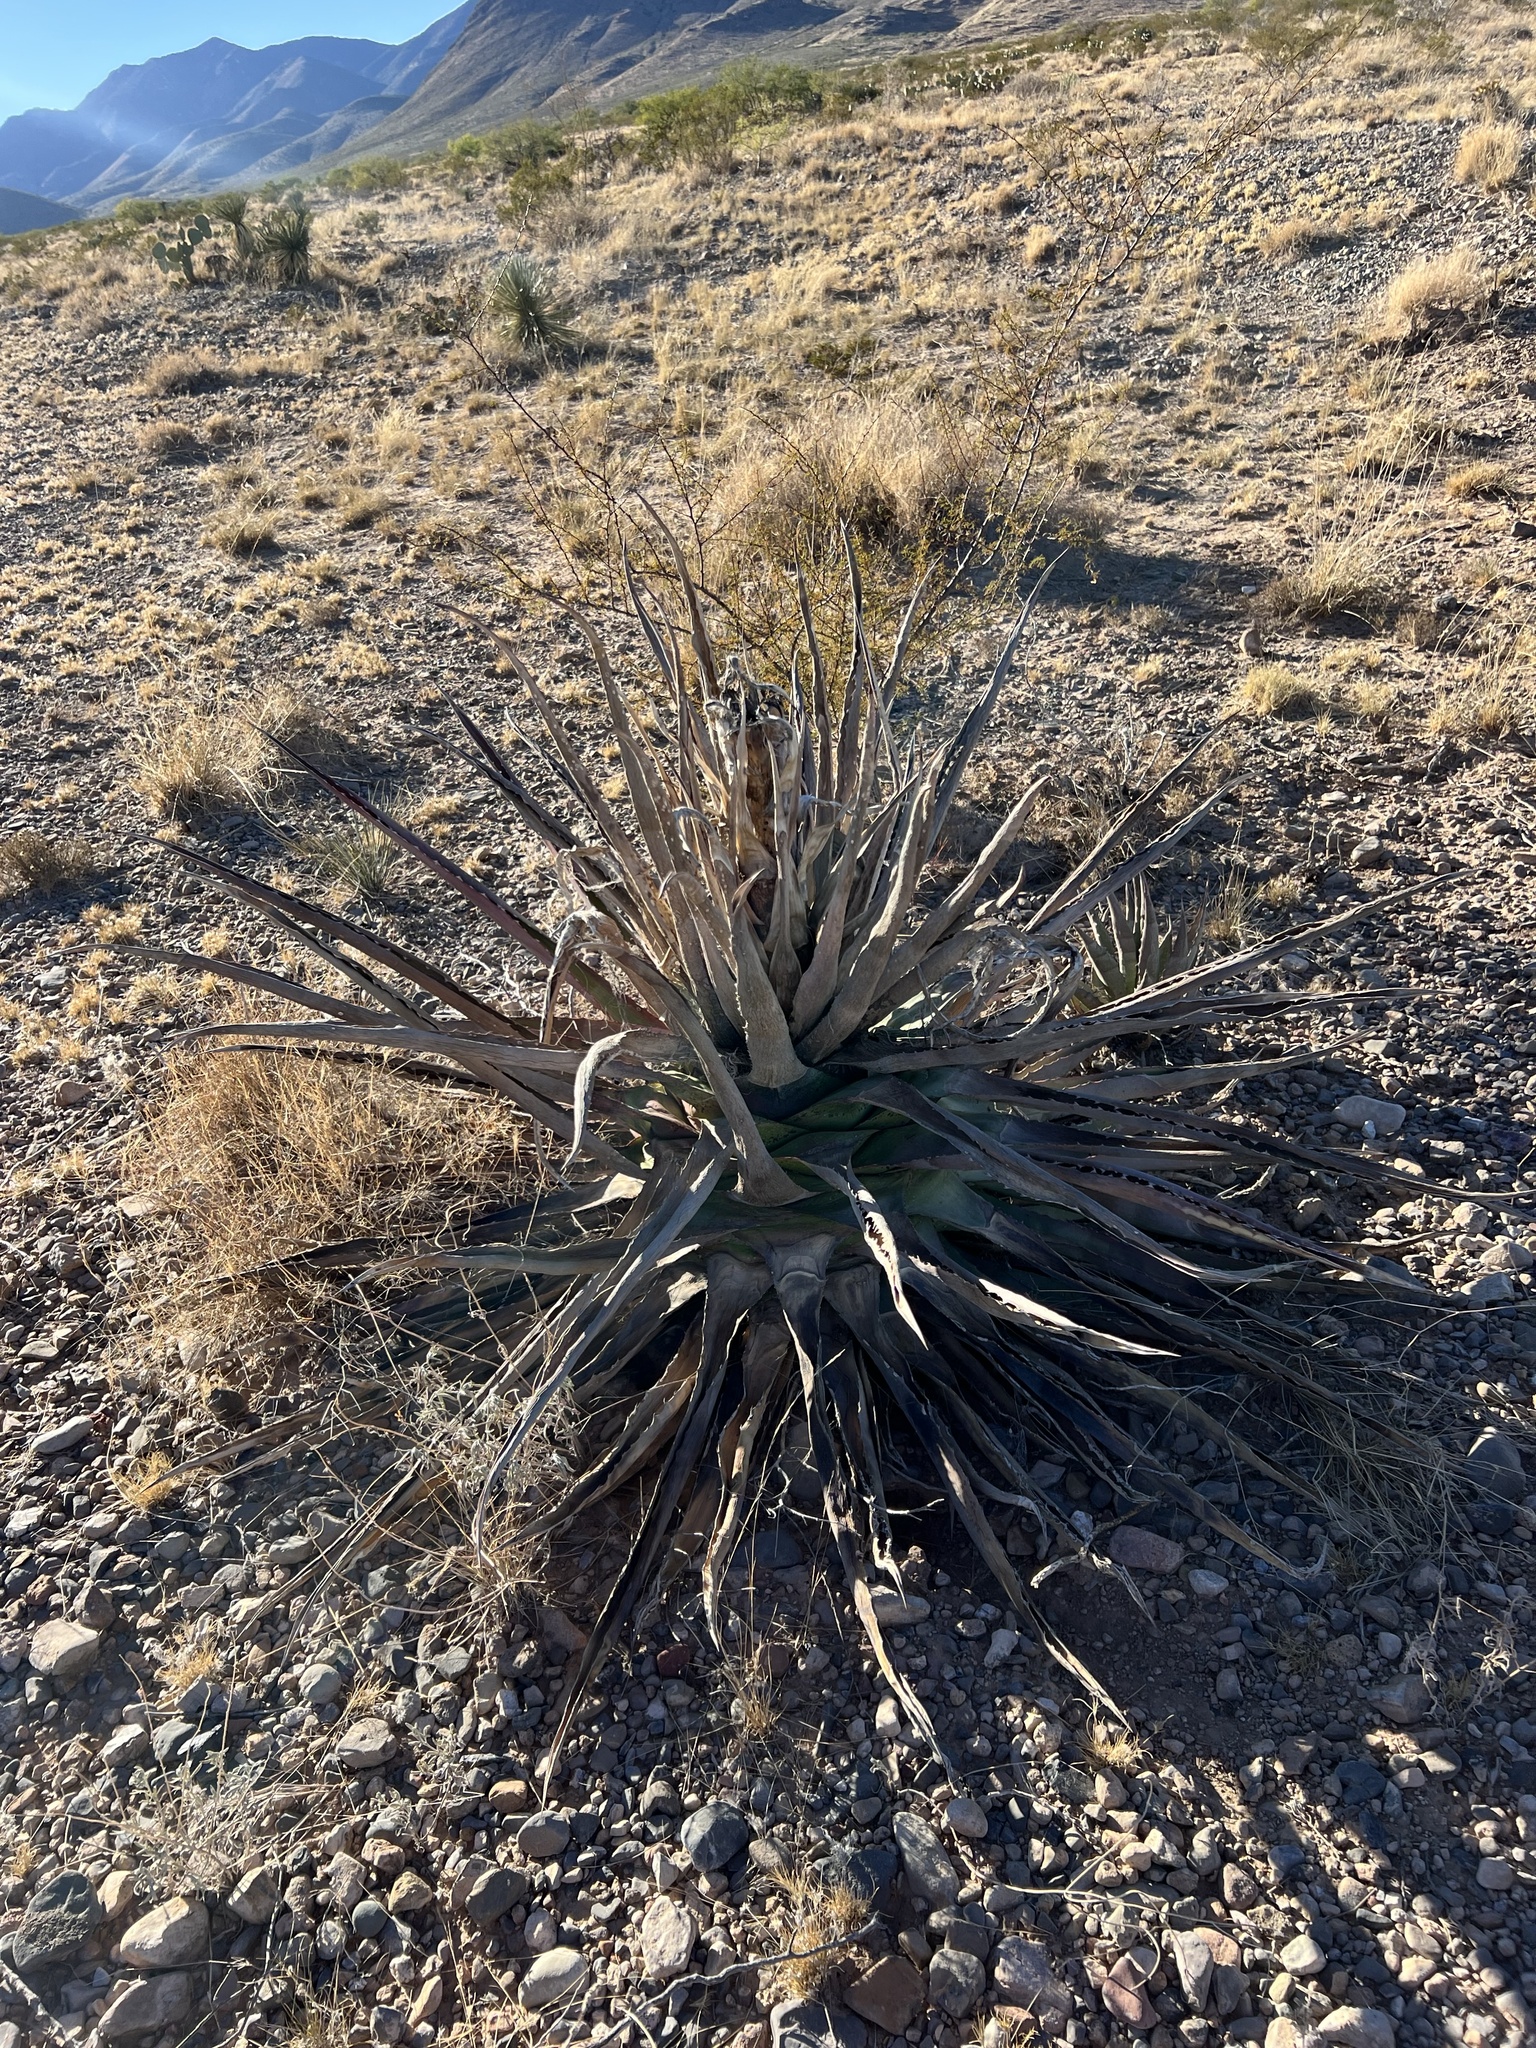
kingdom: Plantae
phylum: Tracheophyta
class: Liliopsida
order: Asparagales
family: Asparagaceae
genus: Agave
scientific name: Agave palmeri
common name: Palmer agave
